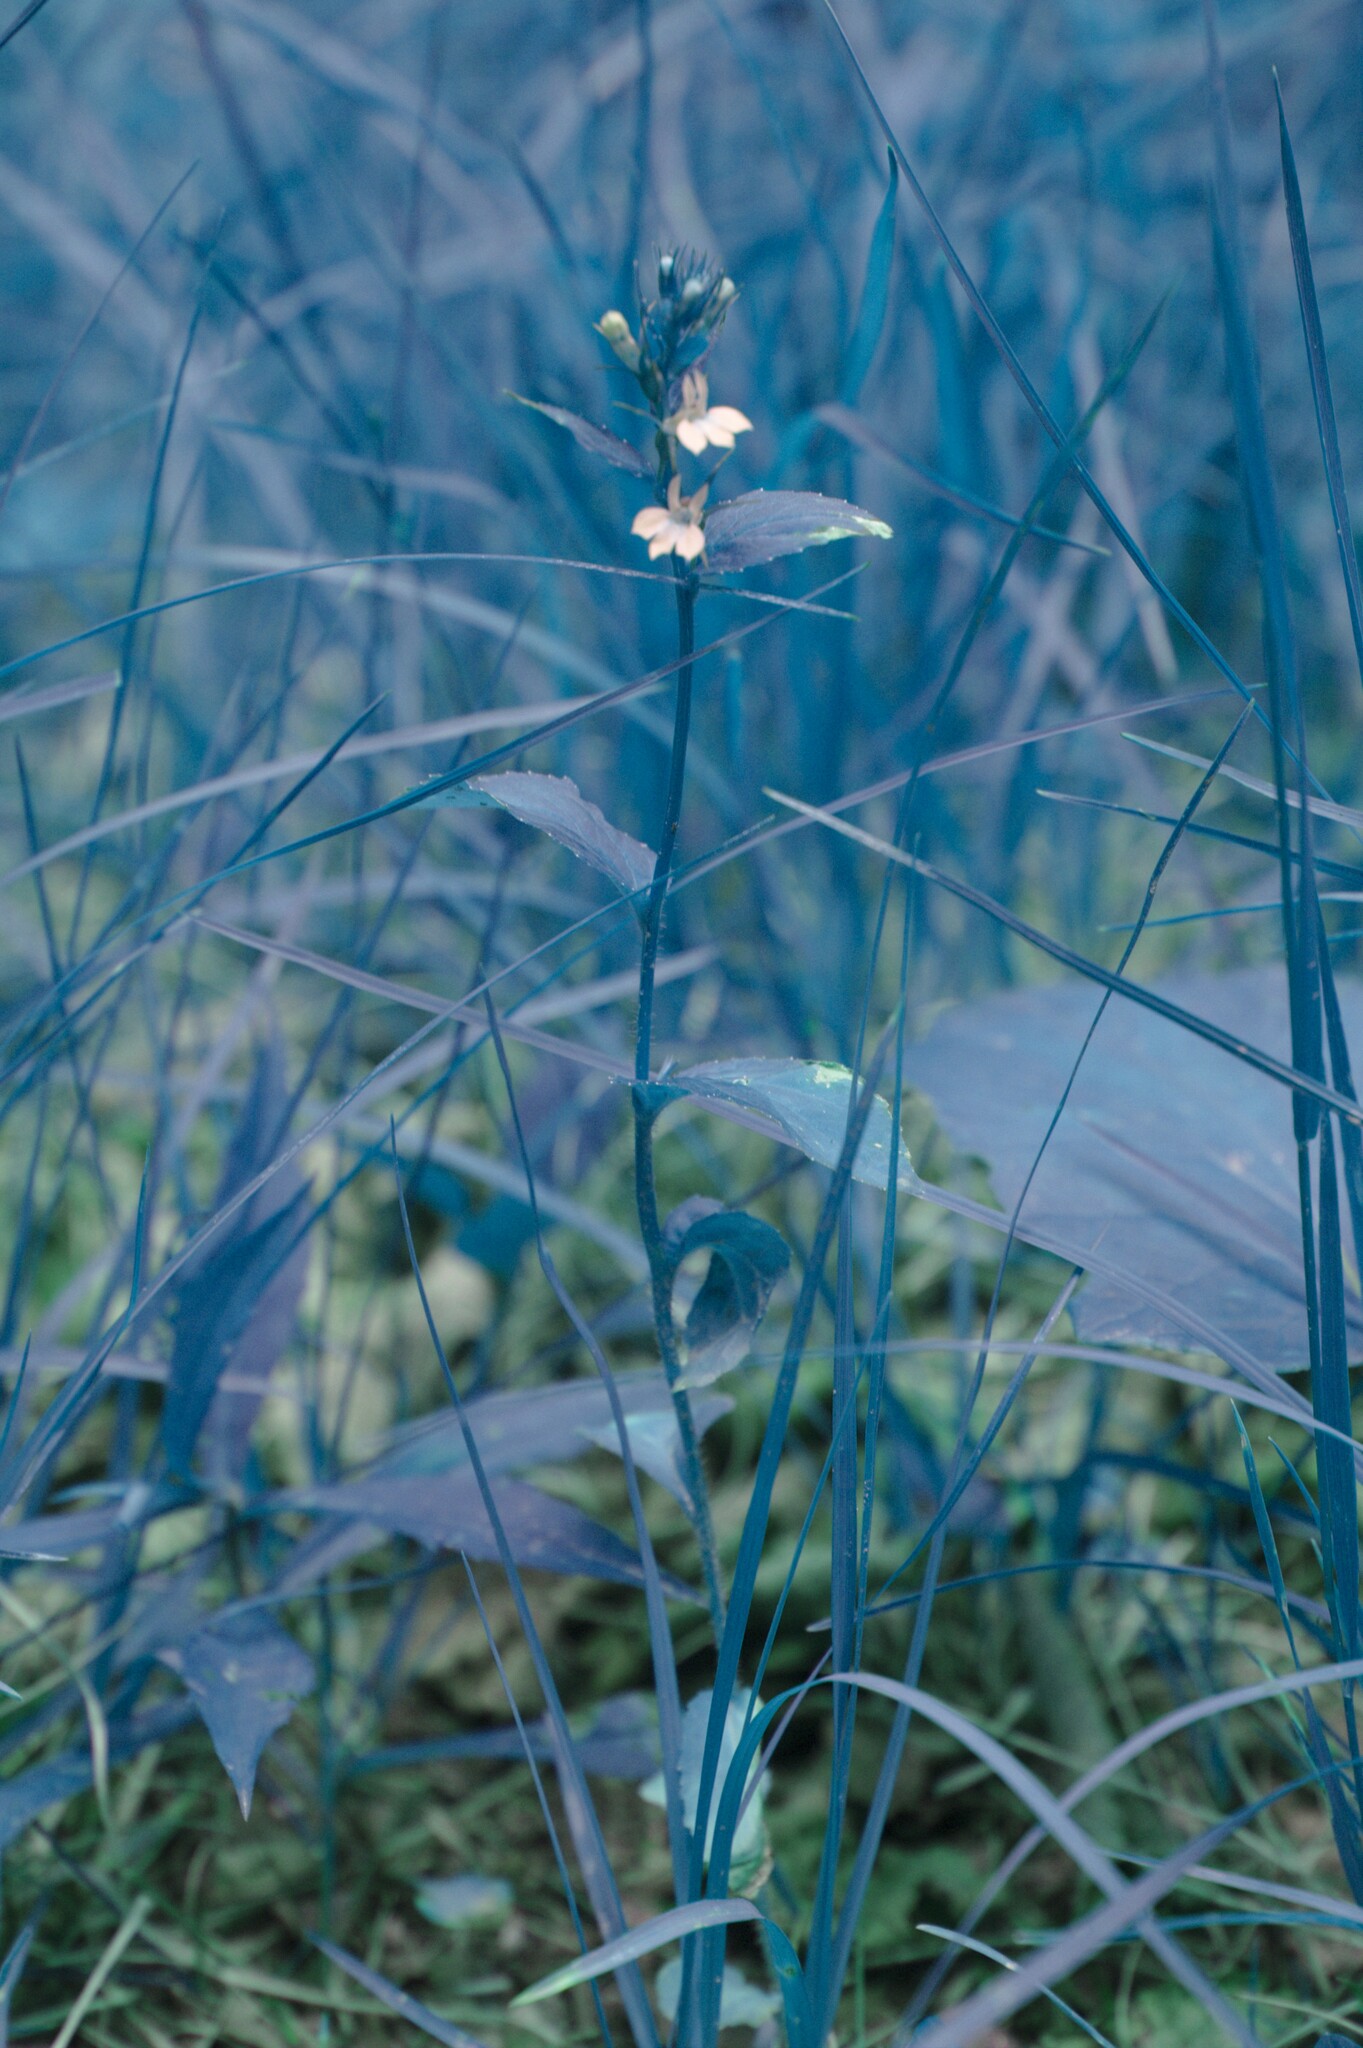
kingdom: Plantae
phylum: Tracheophyta
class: Magnoliopsida
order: Asterales
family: Campanulaceae
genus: Lobelia
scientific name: Lobelia inflata
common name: Indian tobacco
